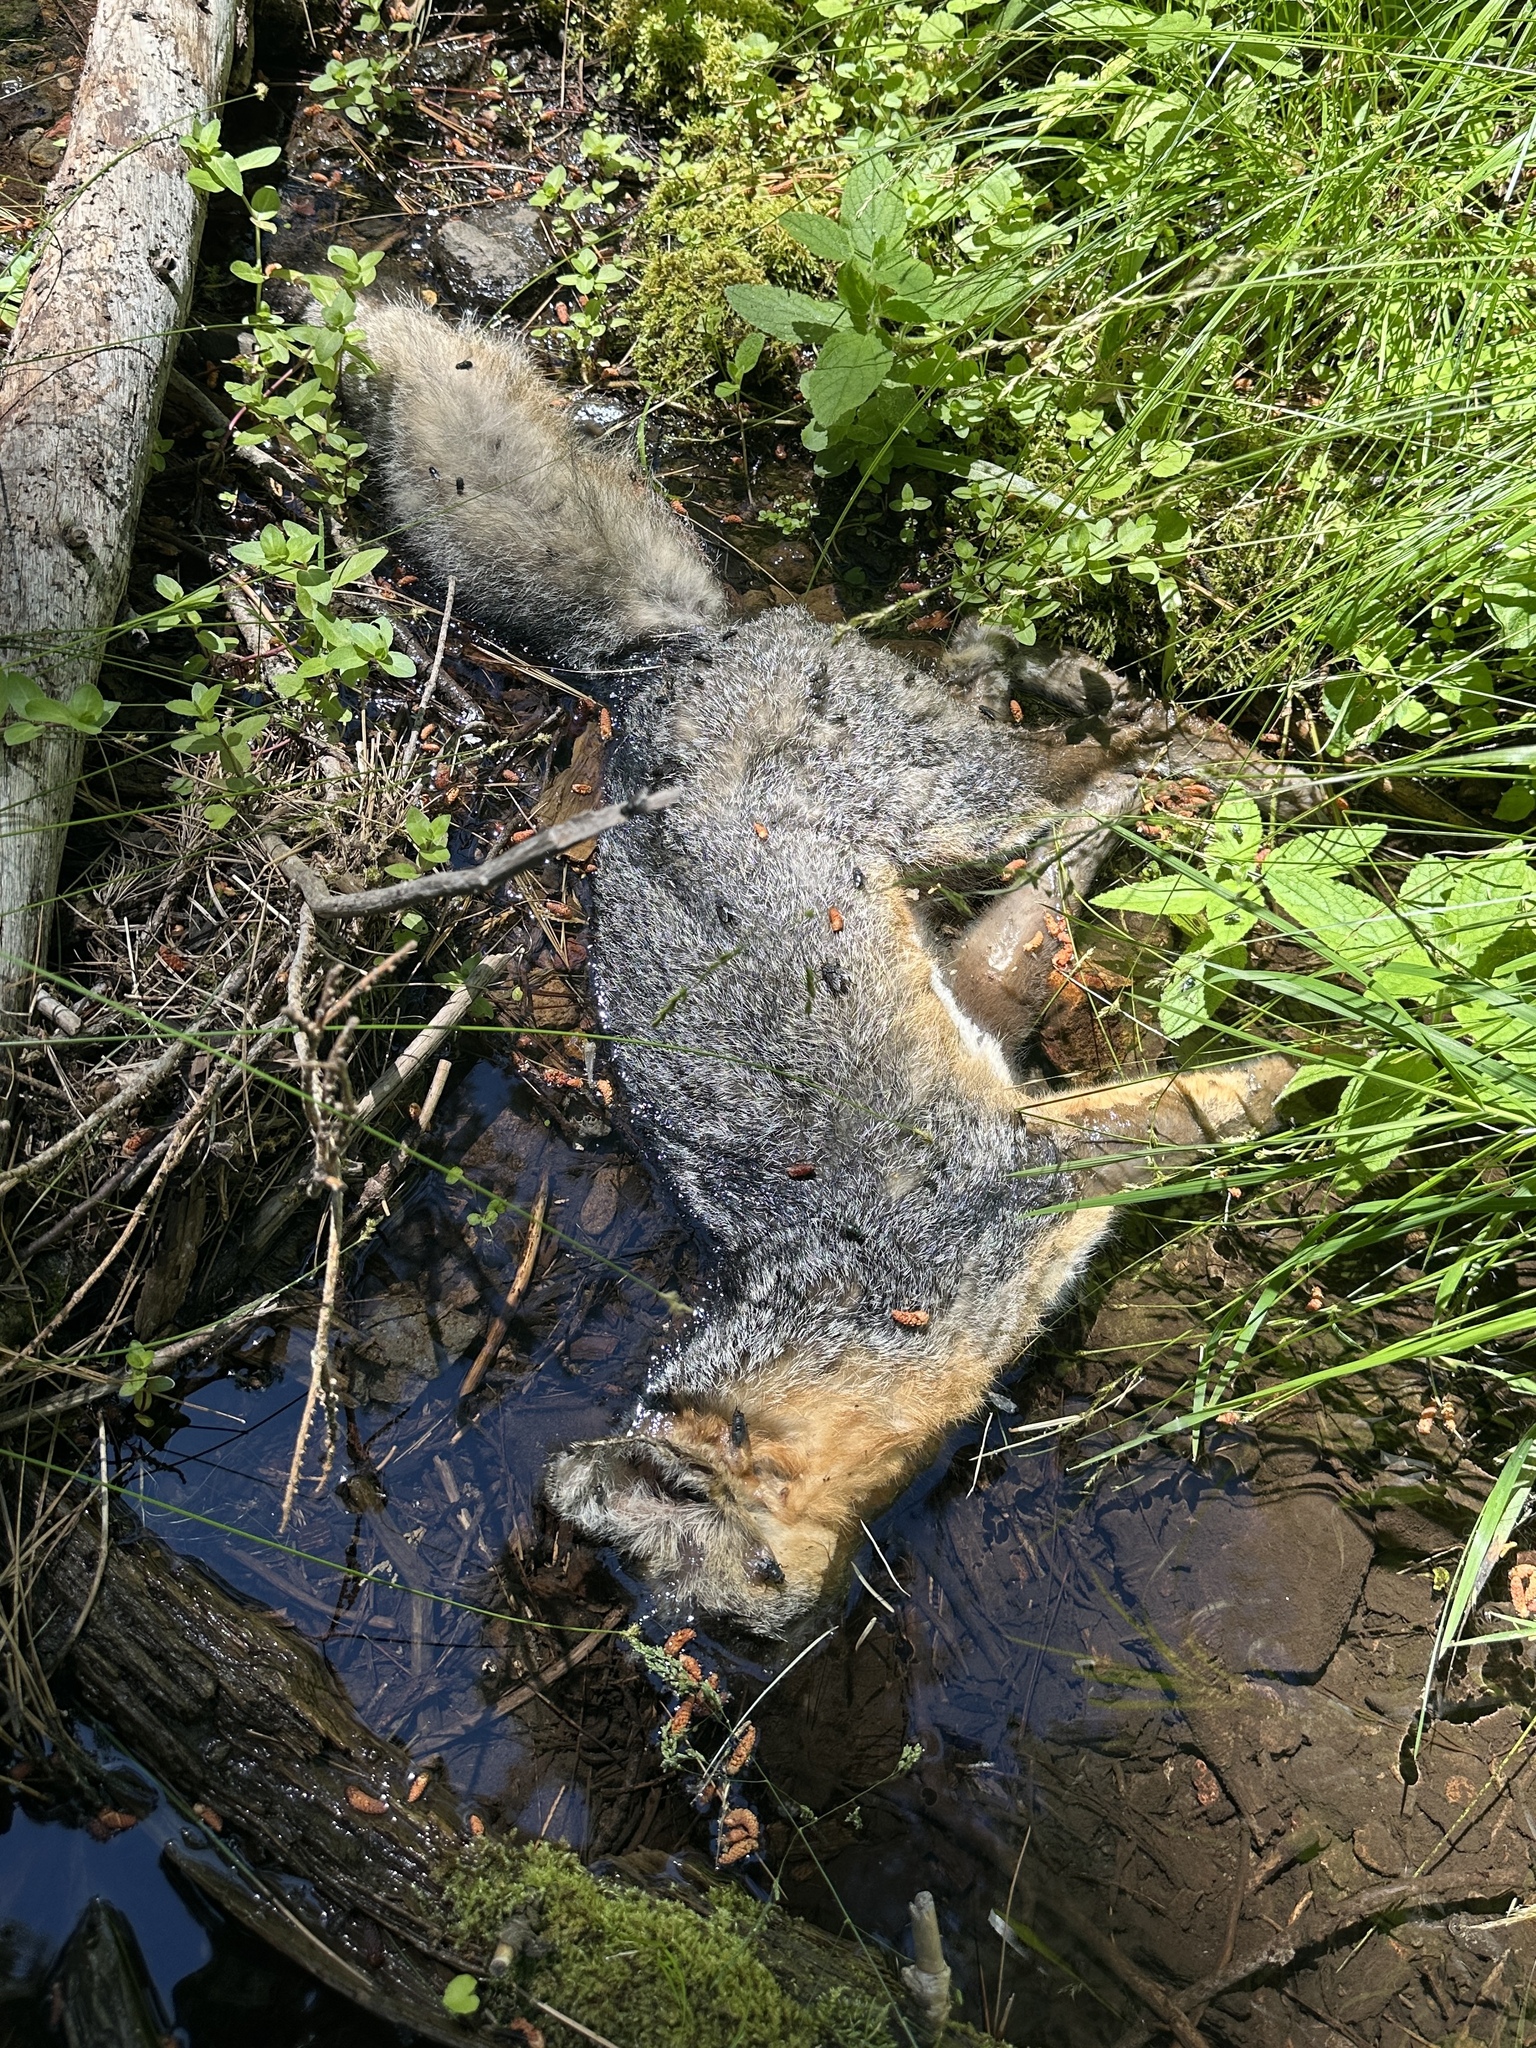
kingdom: Animalia
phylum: Chordata
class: Mammalia
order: Carnivora
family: Canidae
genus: Urocyon
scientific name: Urocyon cinereoargenteus
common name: Gray fox
